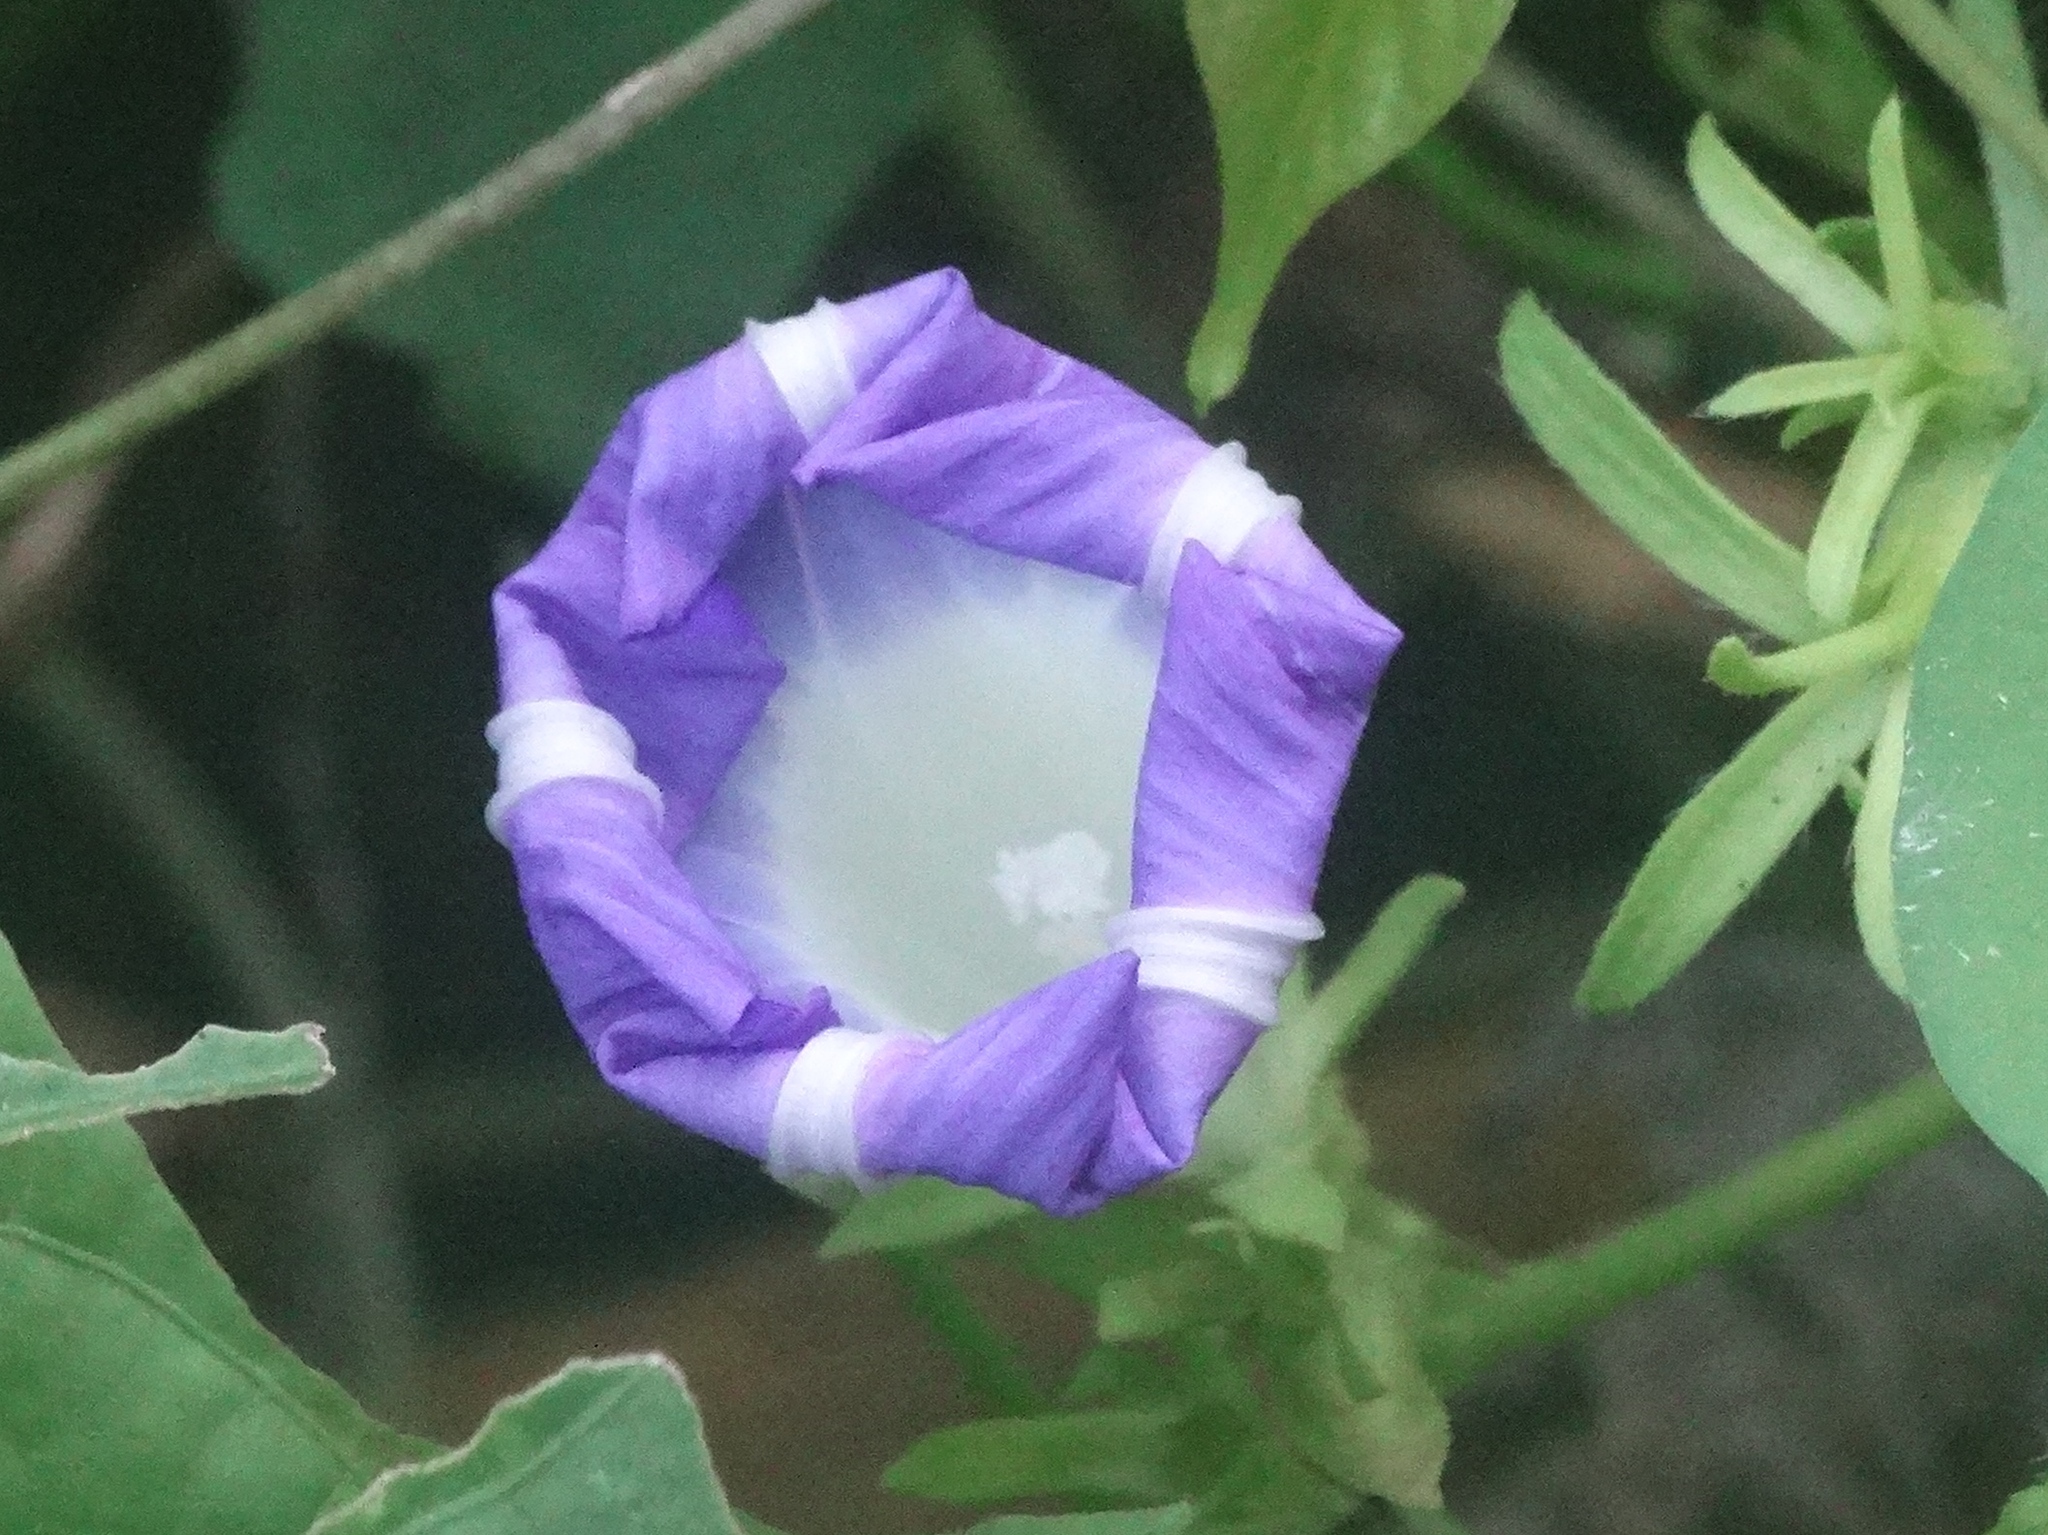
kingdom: Plantae
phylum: Tracheophyta
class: Magnoliopsida
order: Solanales
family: Convolvulaceae
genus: Ipomoea
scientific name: Ipomoea hederacea
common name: Ivy-leaved morning-glory
